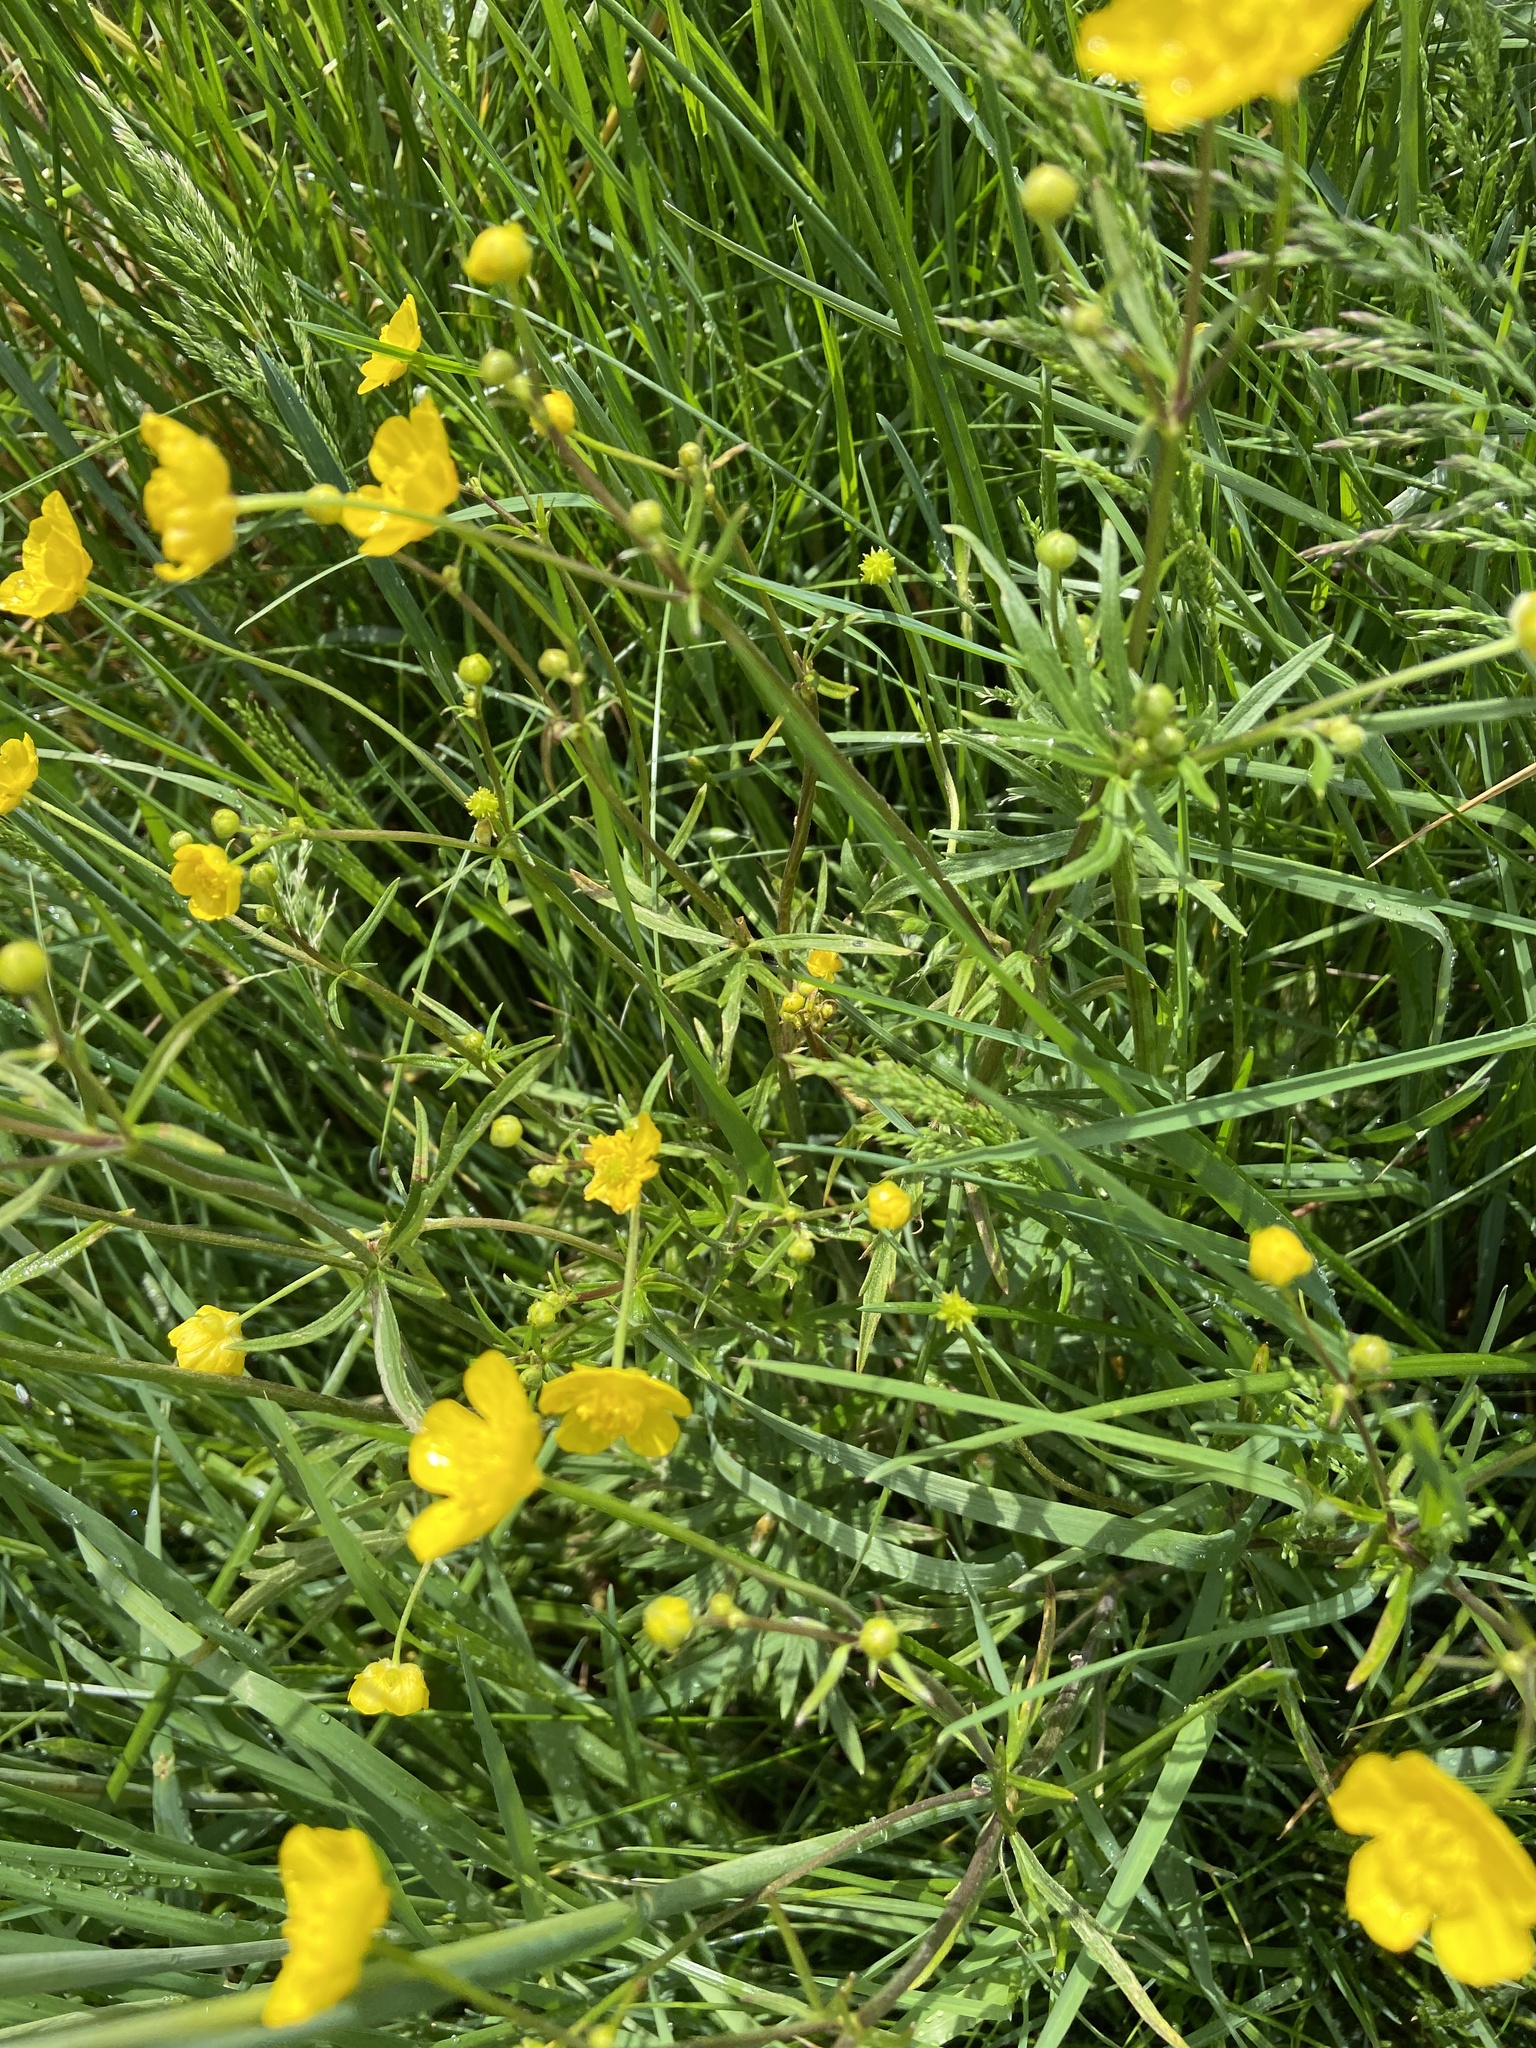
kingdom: Plantae
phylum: Tracheophyta
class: Magnoliopsida
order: Ranunculales
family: Ranunculaceae
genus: Ranunculus
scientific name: Ranunculus acris
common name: Meadow buttercup
